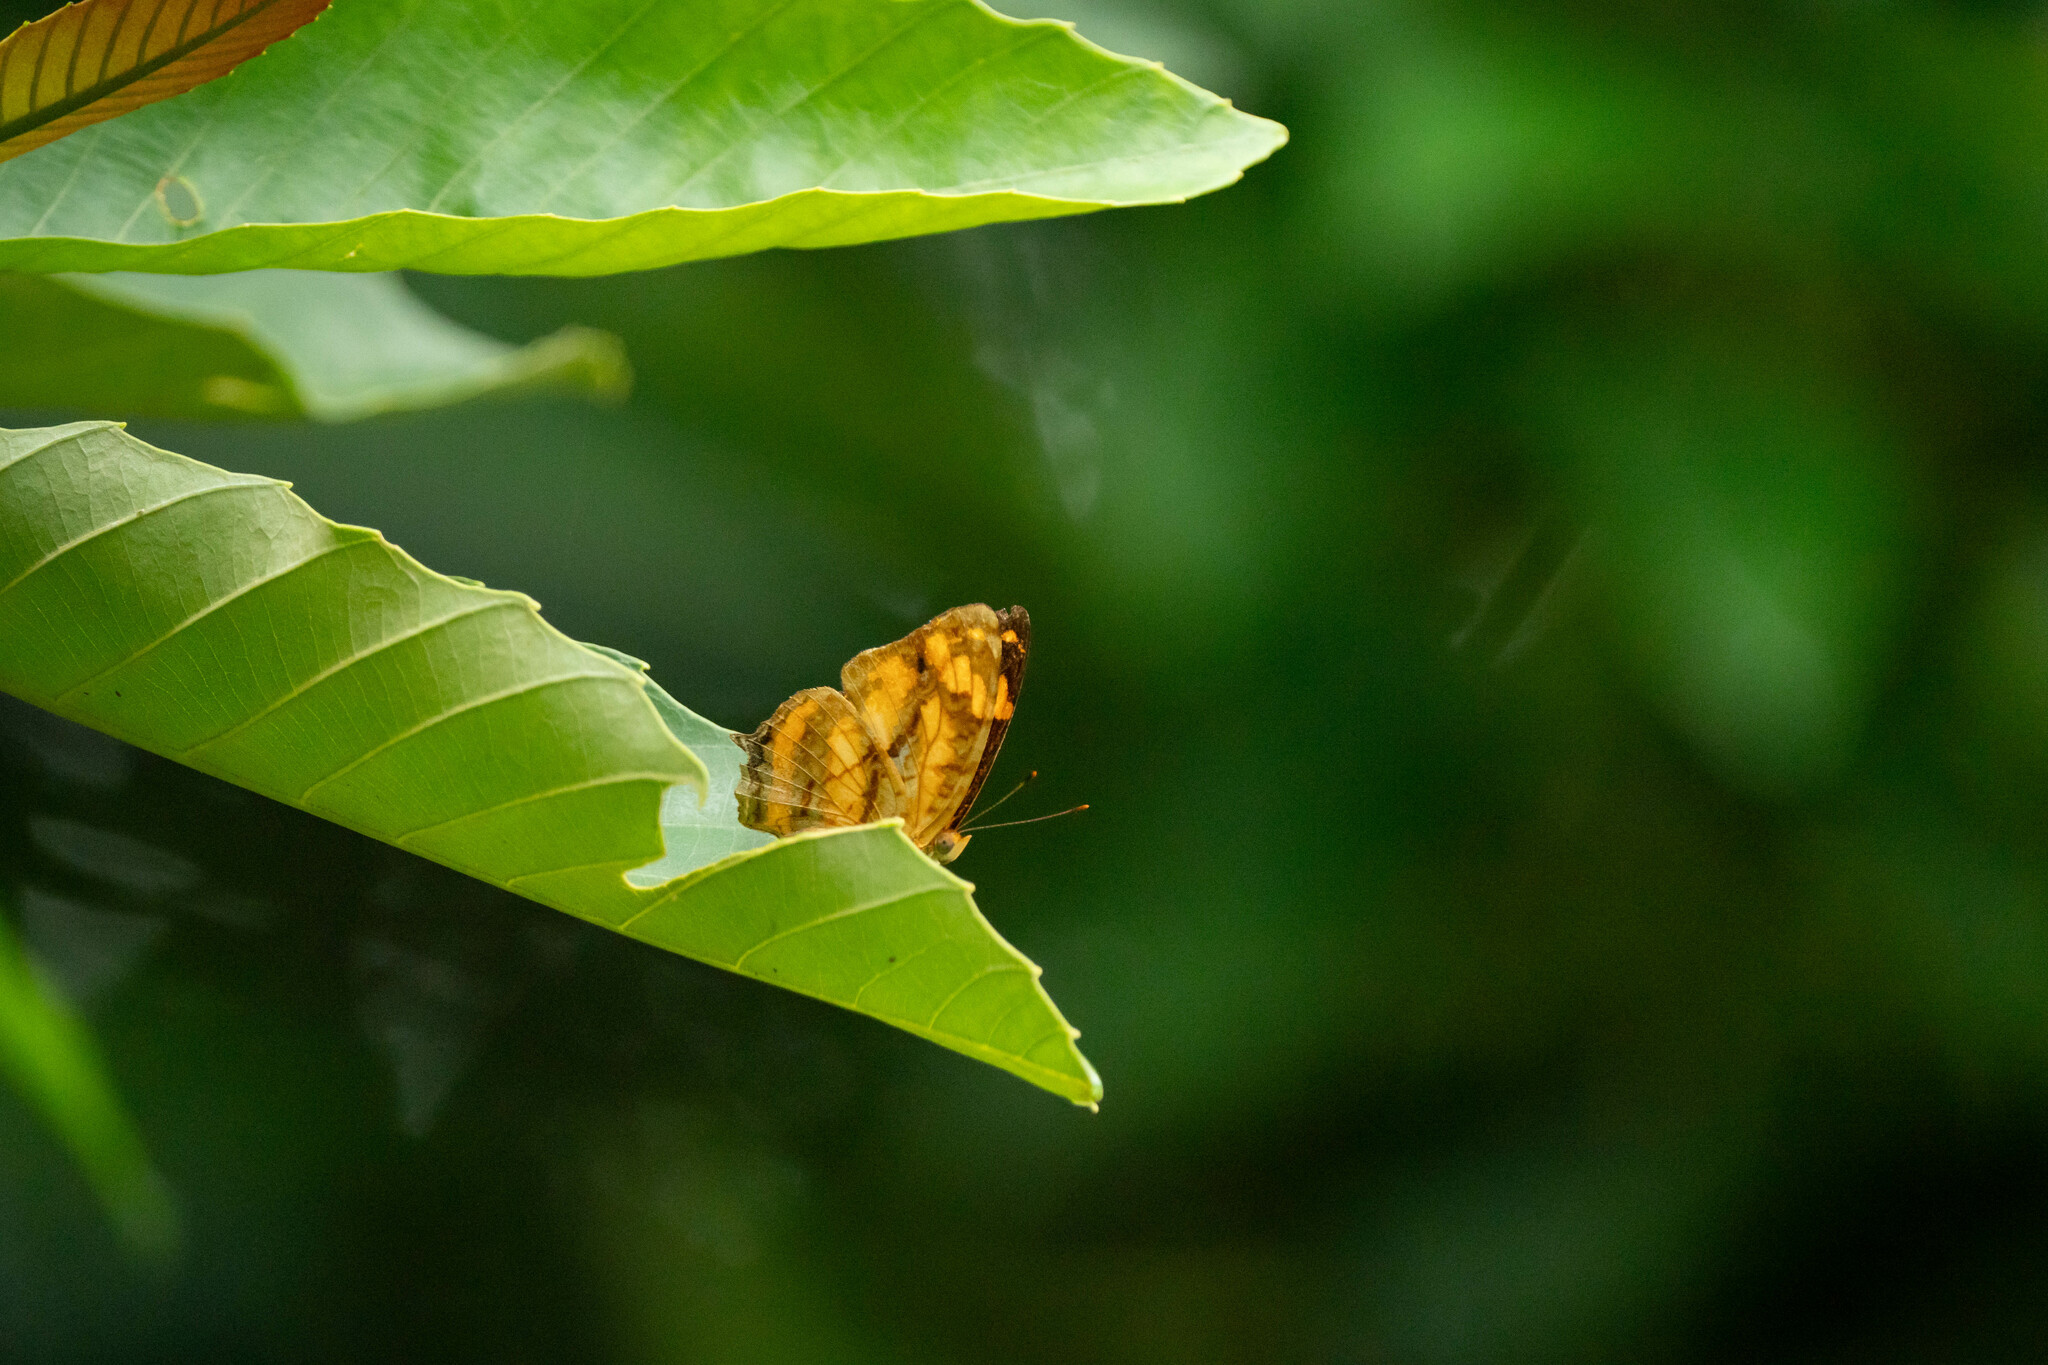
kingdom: Animalia
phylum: Arthropoda
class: Insecta
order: Lepidoptera
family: Nymphalidae
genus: Symbrenthia
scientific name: Symbrenthia hypselis
